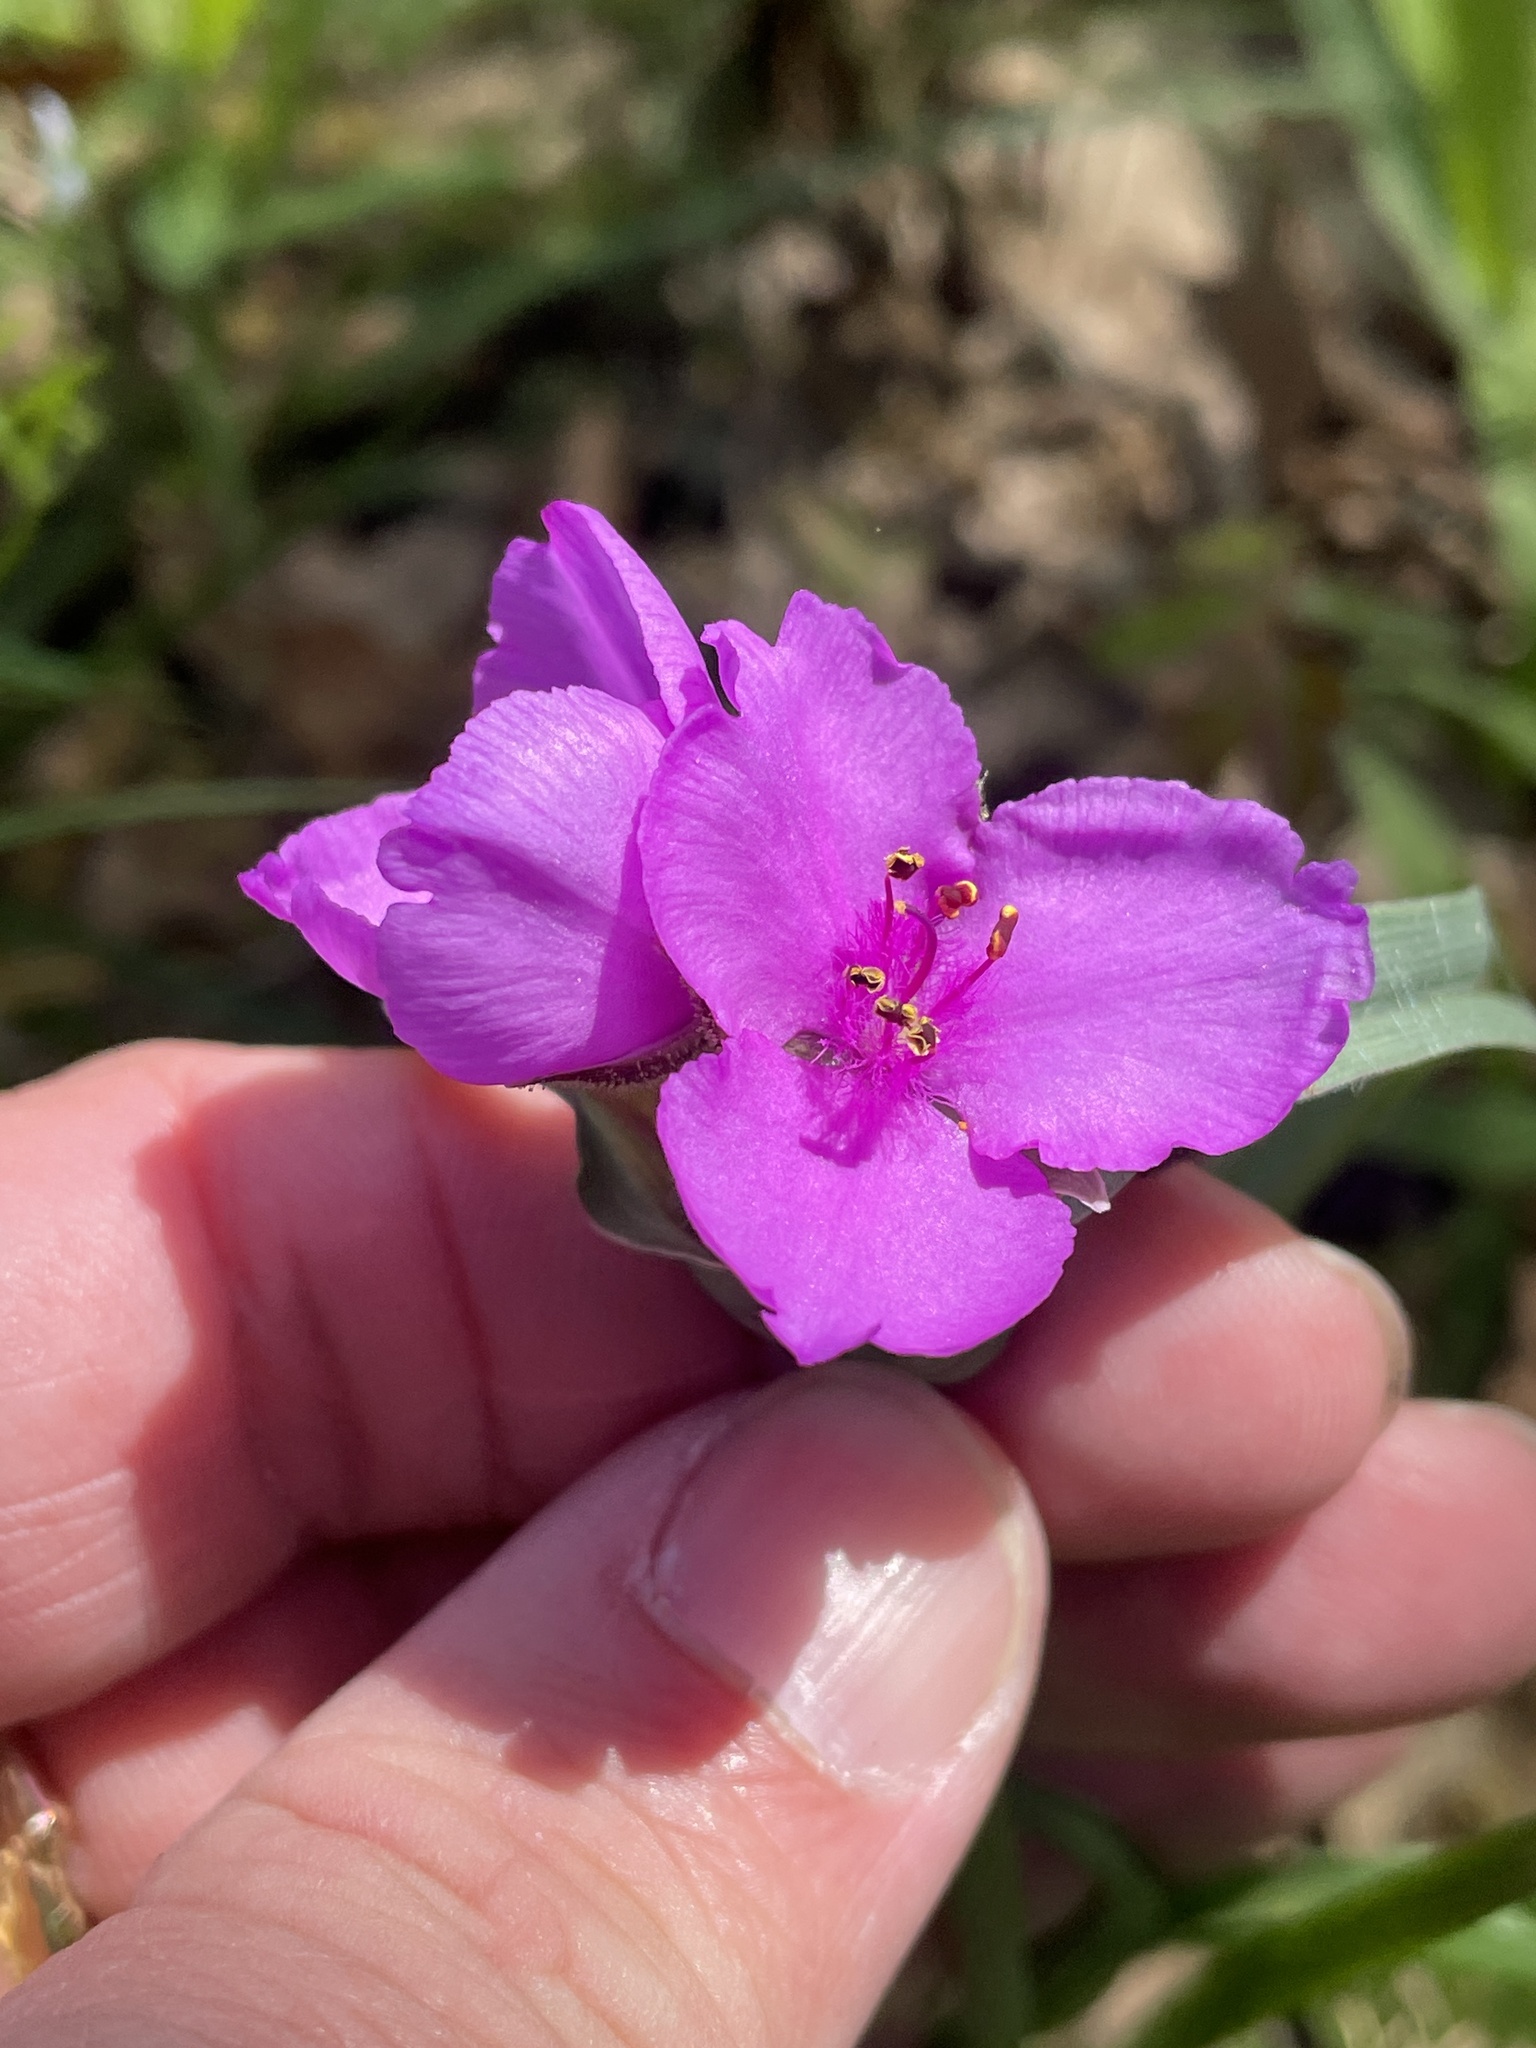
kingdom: Plantae
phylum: Tracheophyta
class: Liliopsida
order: Commelinales
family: Commelinaceae
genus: Tradescantia
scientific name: Tradescantia occidentalis
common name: Prairie spiderwort
